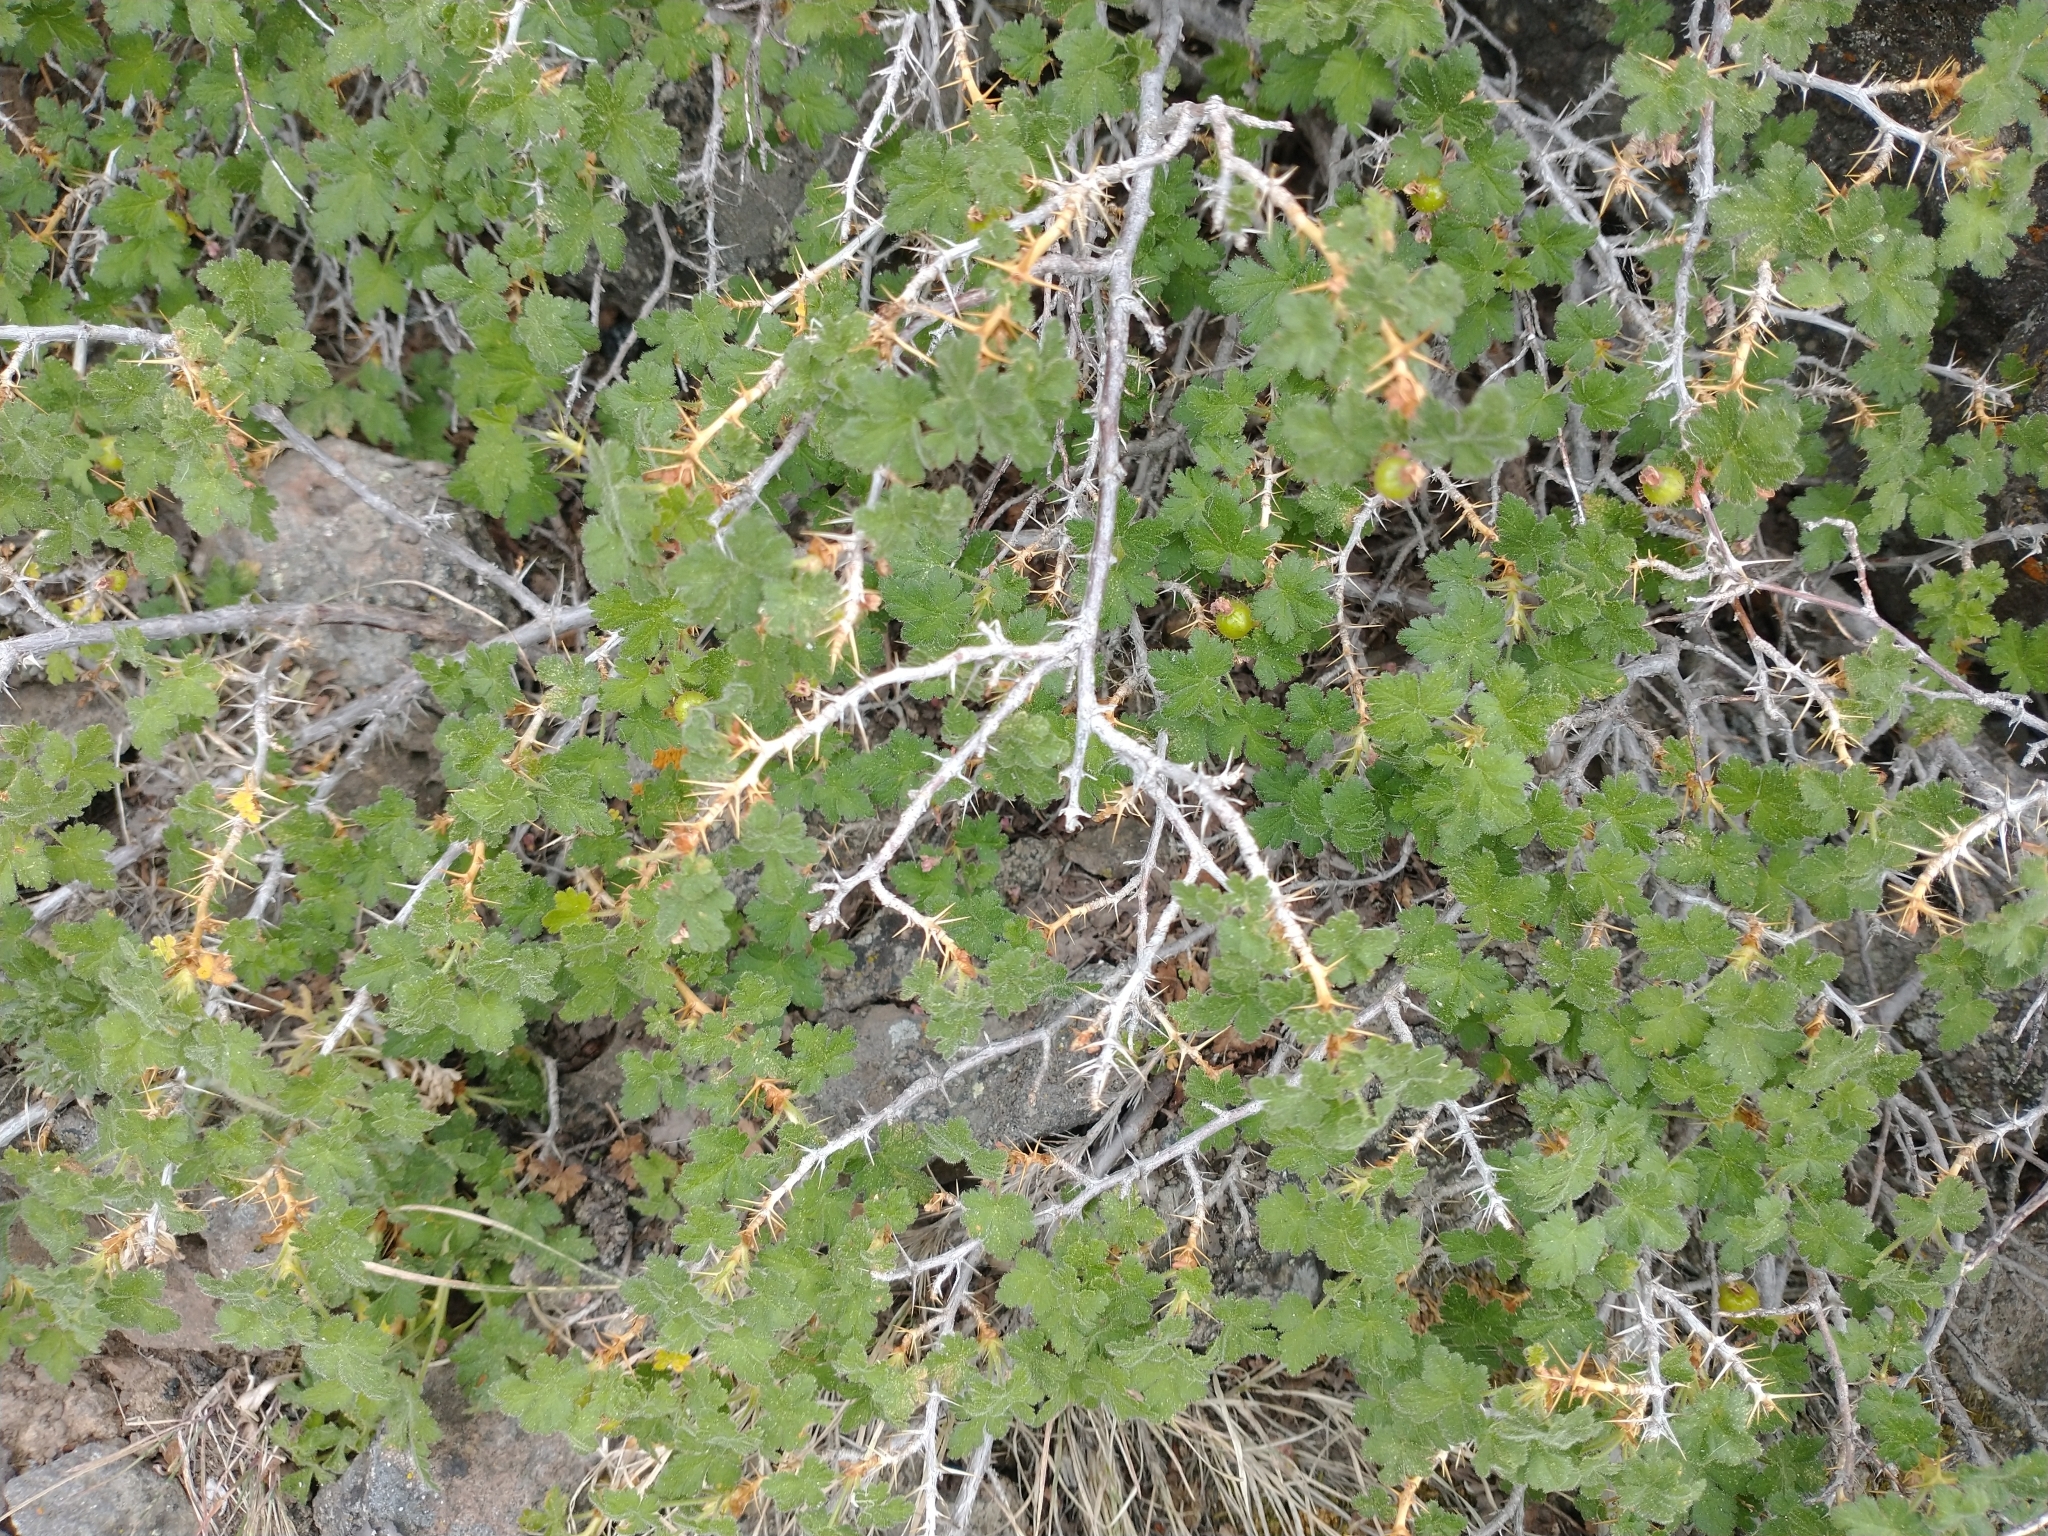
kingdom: Plantae
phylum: Tracheophyta
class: Magnoliopsida
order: Saxifragales
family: Grossulariaceae
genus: Ribes
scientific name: Ribes montigenum
